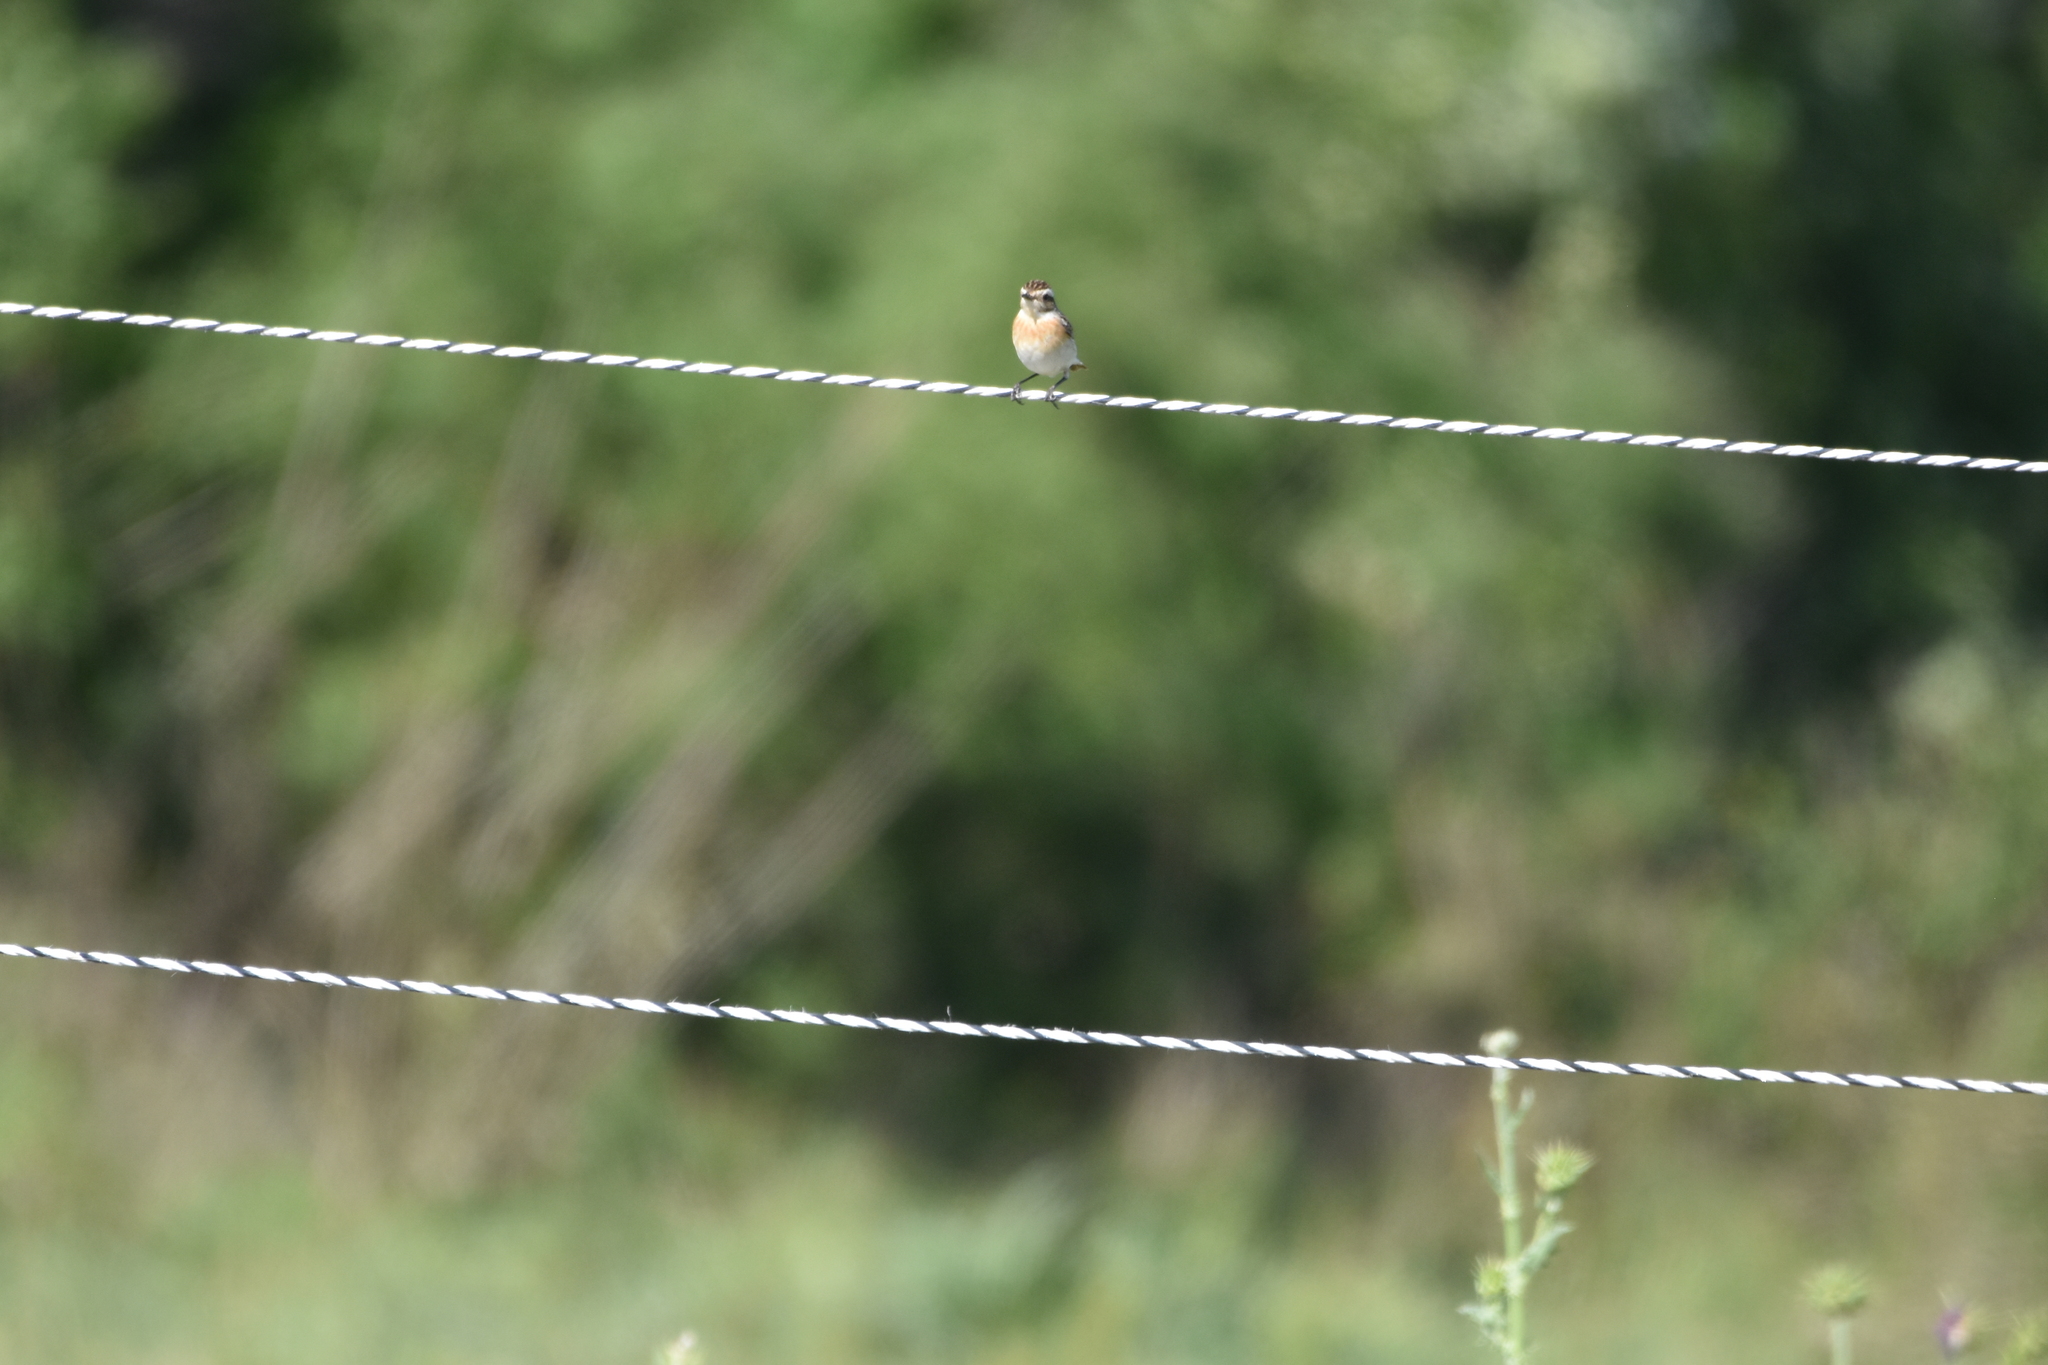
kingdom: Animalia
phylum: Chordata
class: Aves
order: Passeriformes
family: Muscicapidae
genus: Saxicola
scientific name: Saxicola rubetra
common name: Whinchat
